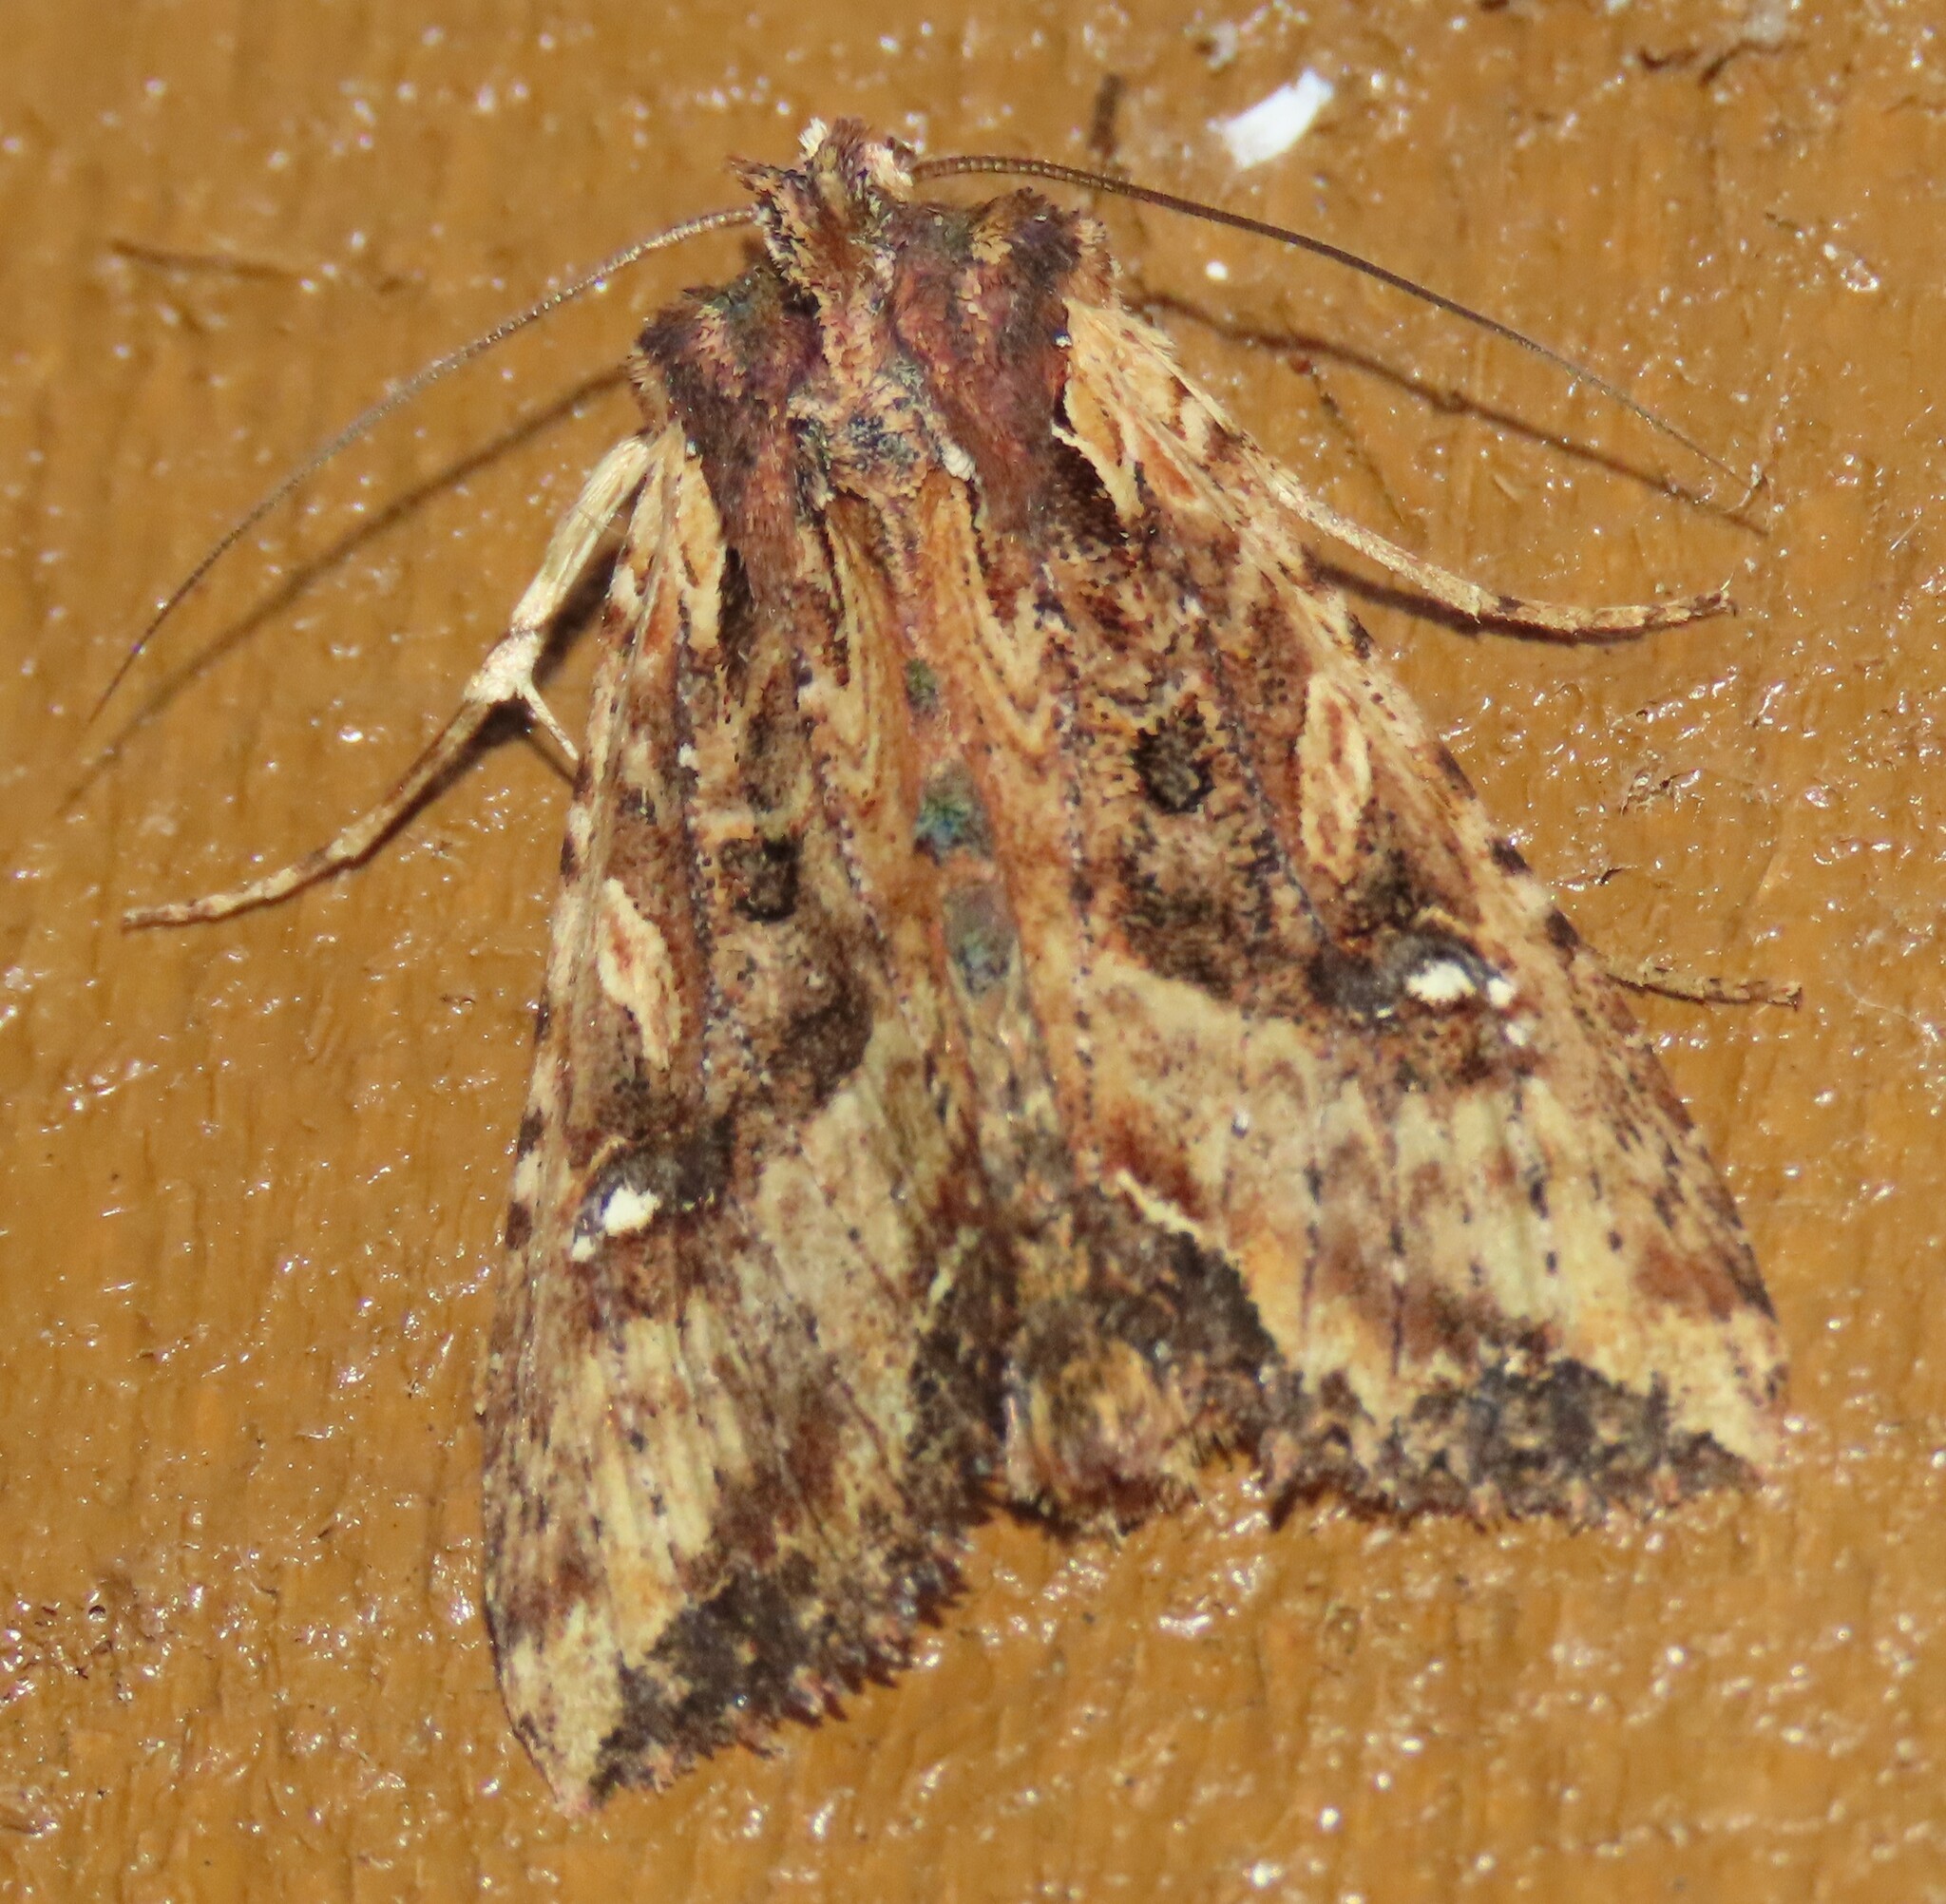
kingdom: Animalia
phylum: Arthropoda
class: Insecta
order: Lepidoptera
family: Noctuidae
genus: Meterana
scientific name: Meterana stipata
